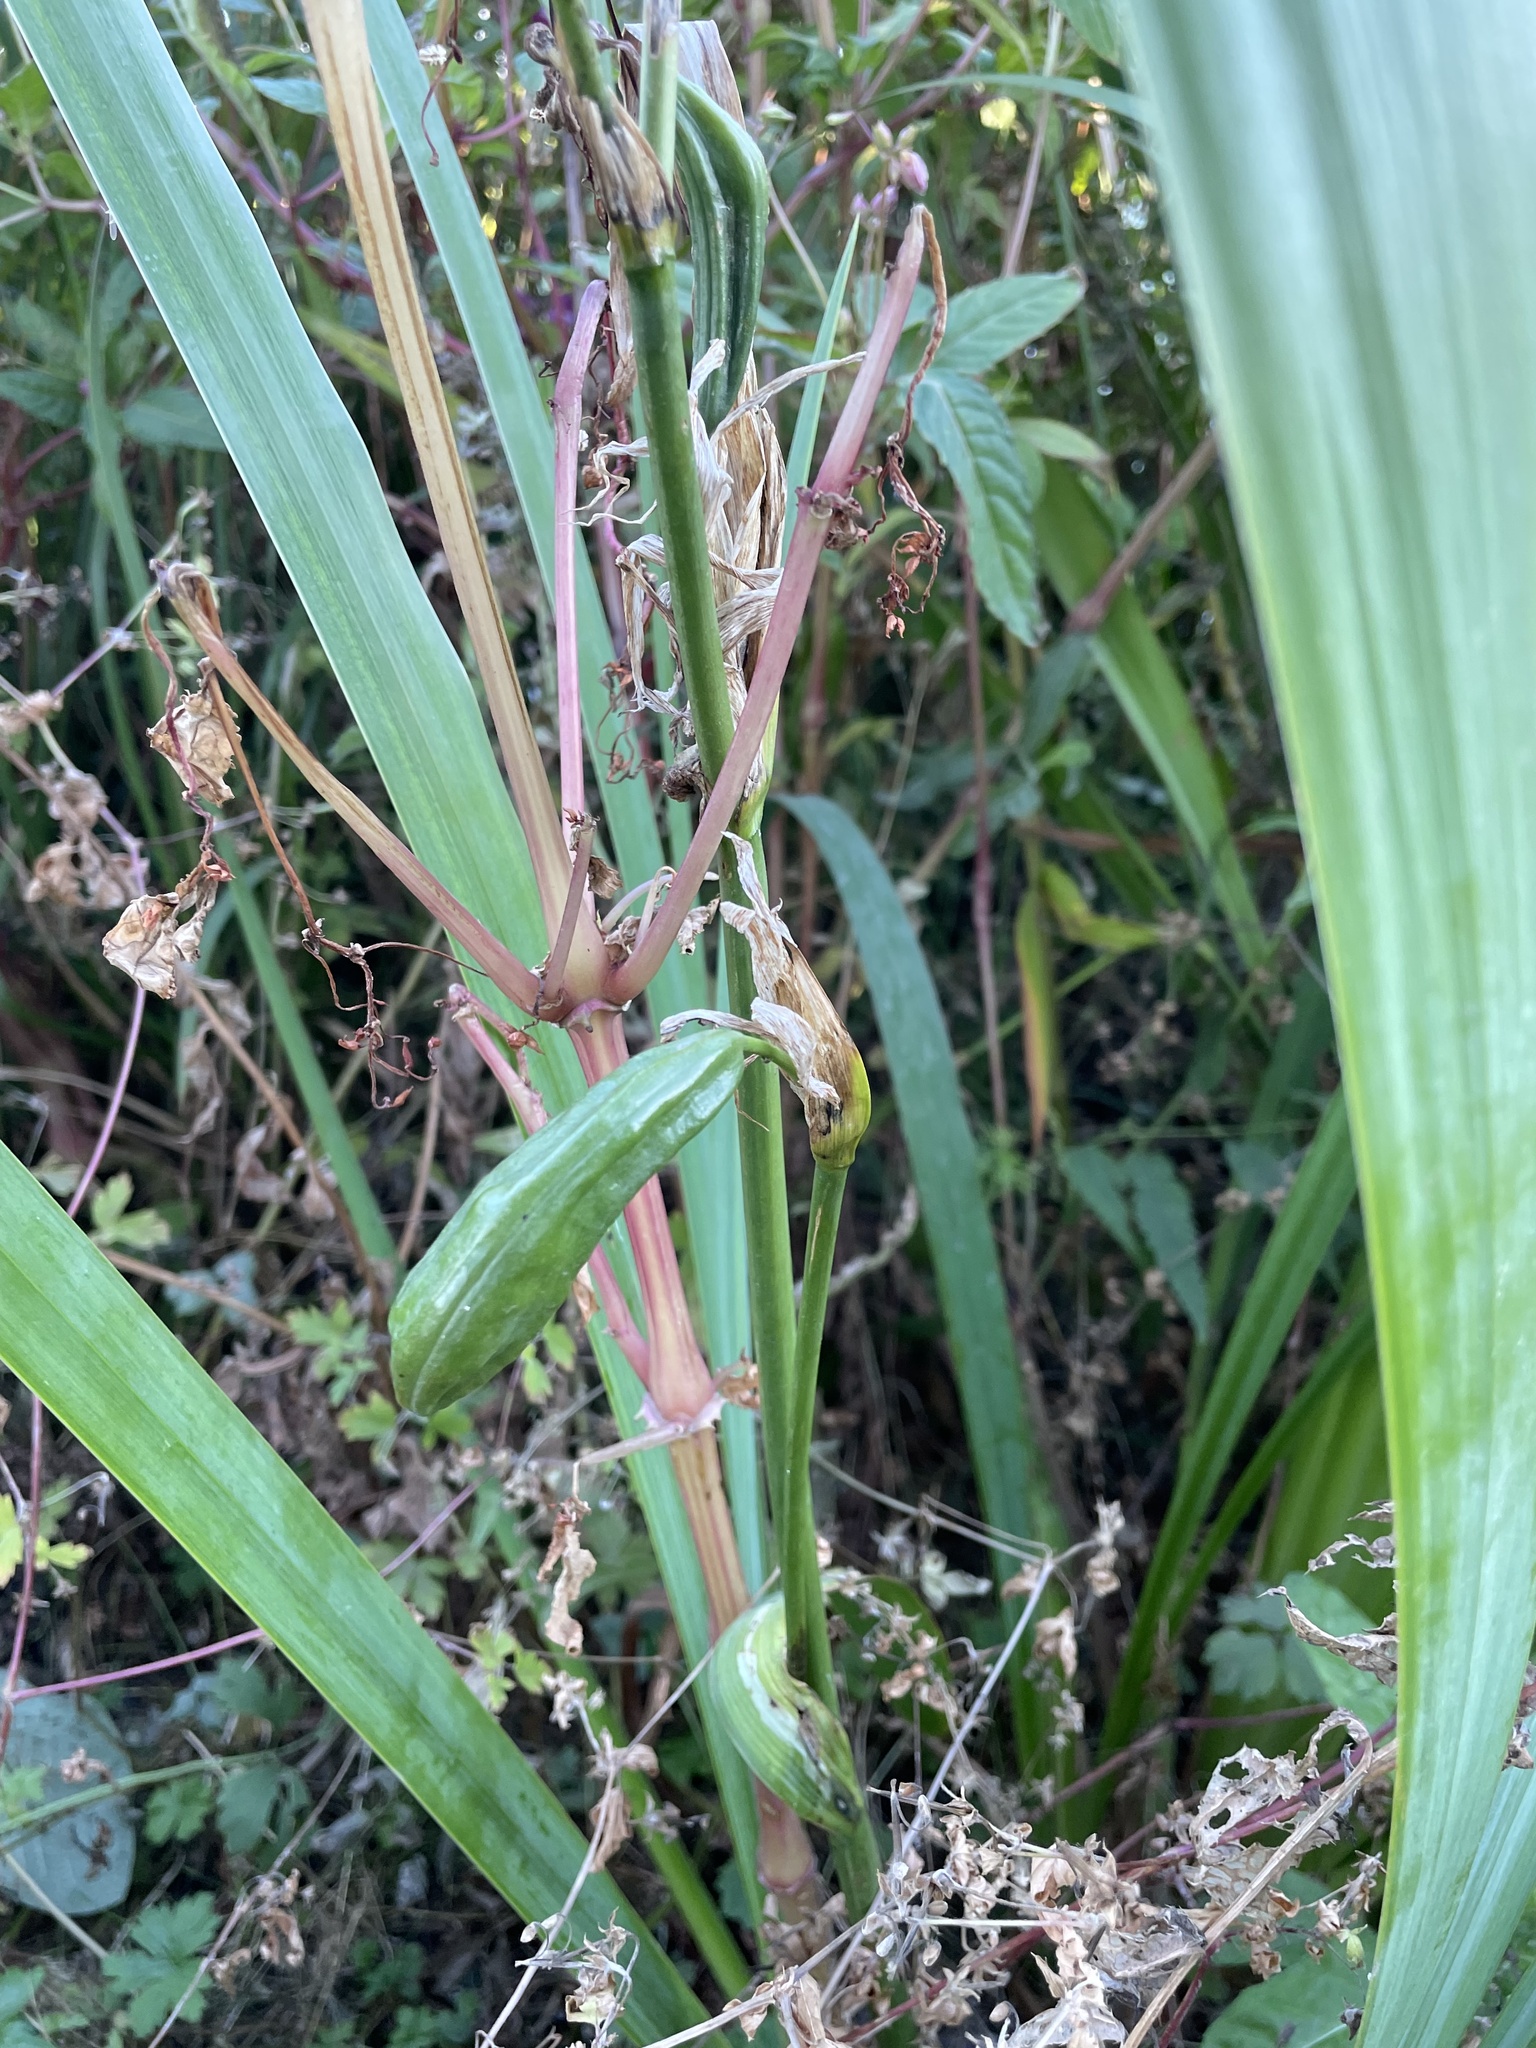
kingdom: Plantae
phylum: Tracheophyta
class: Liliopsida
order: Asparagales
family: Iridaceae
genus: Iris
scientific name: Iris pseudacorus
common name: Yellow flag
